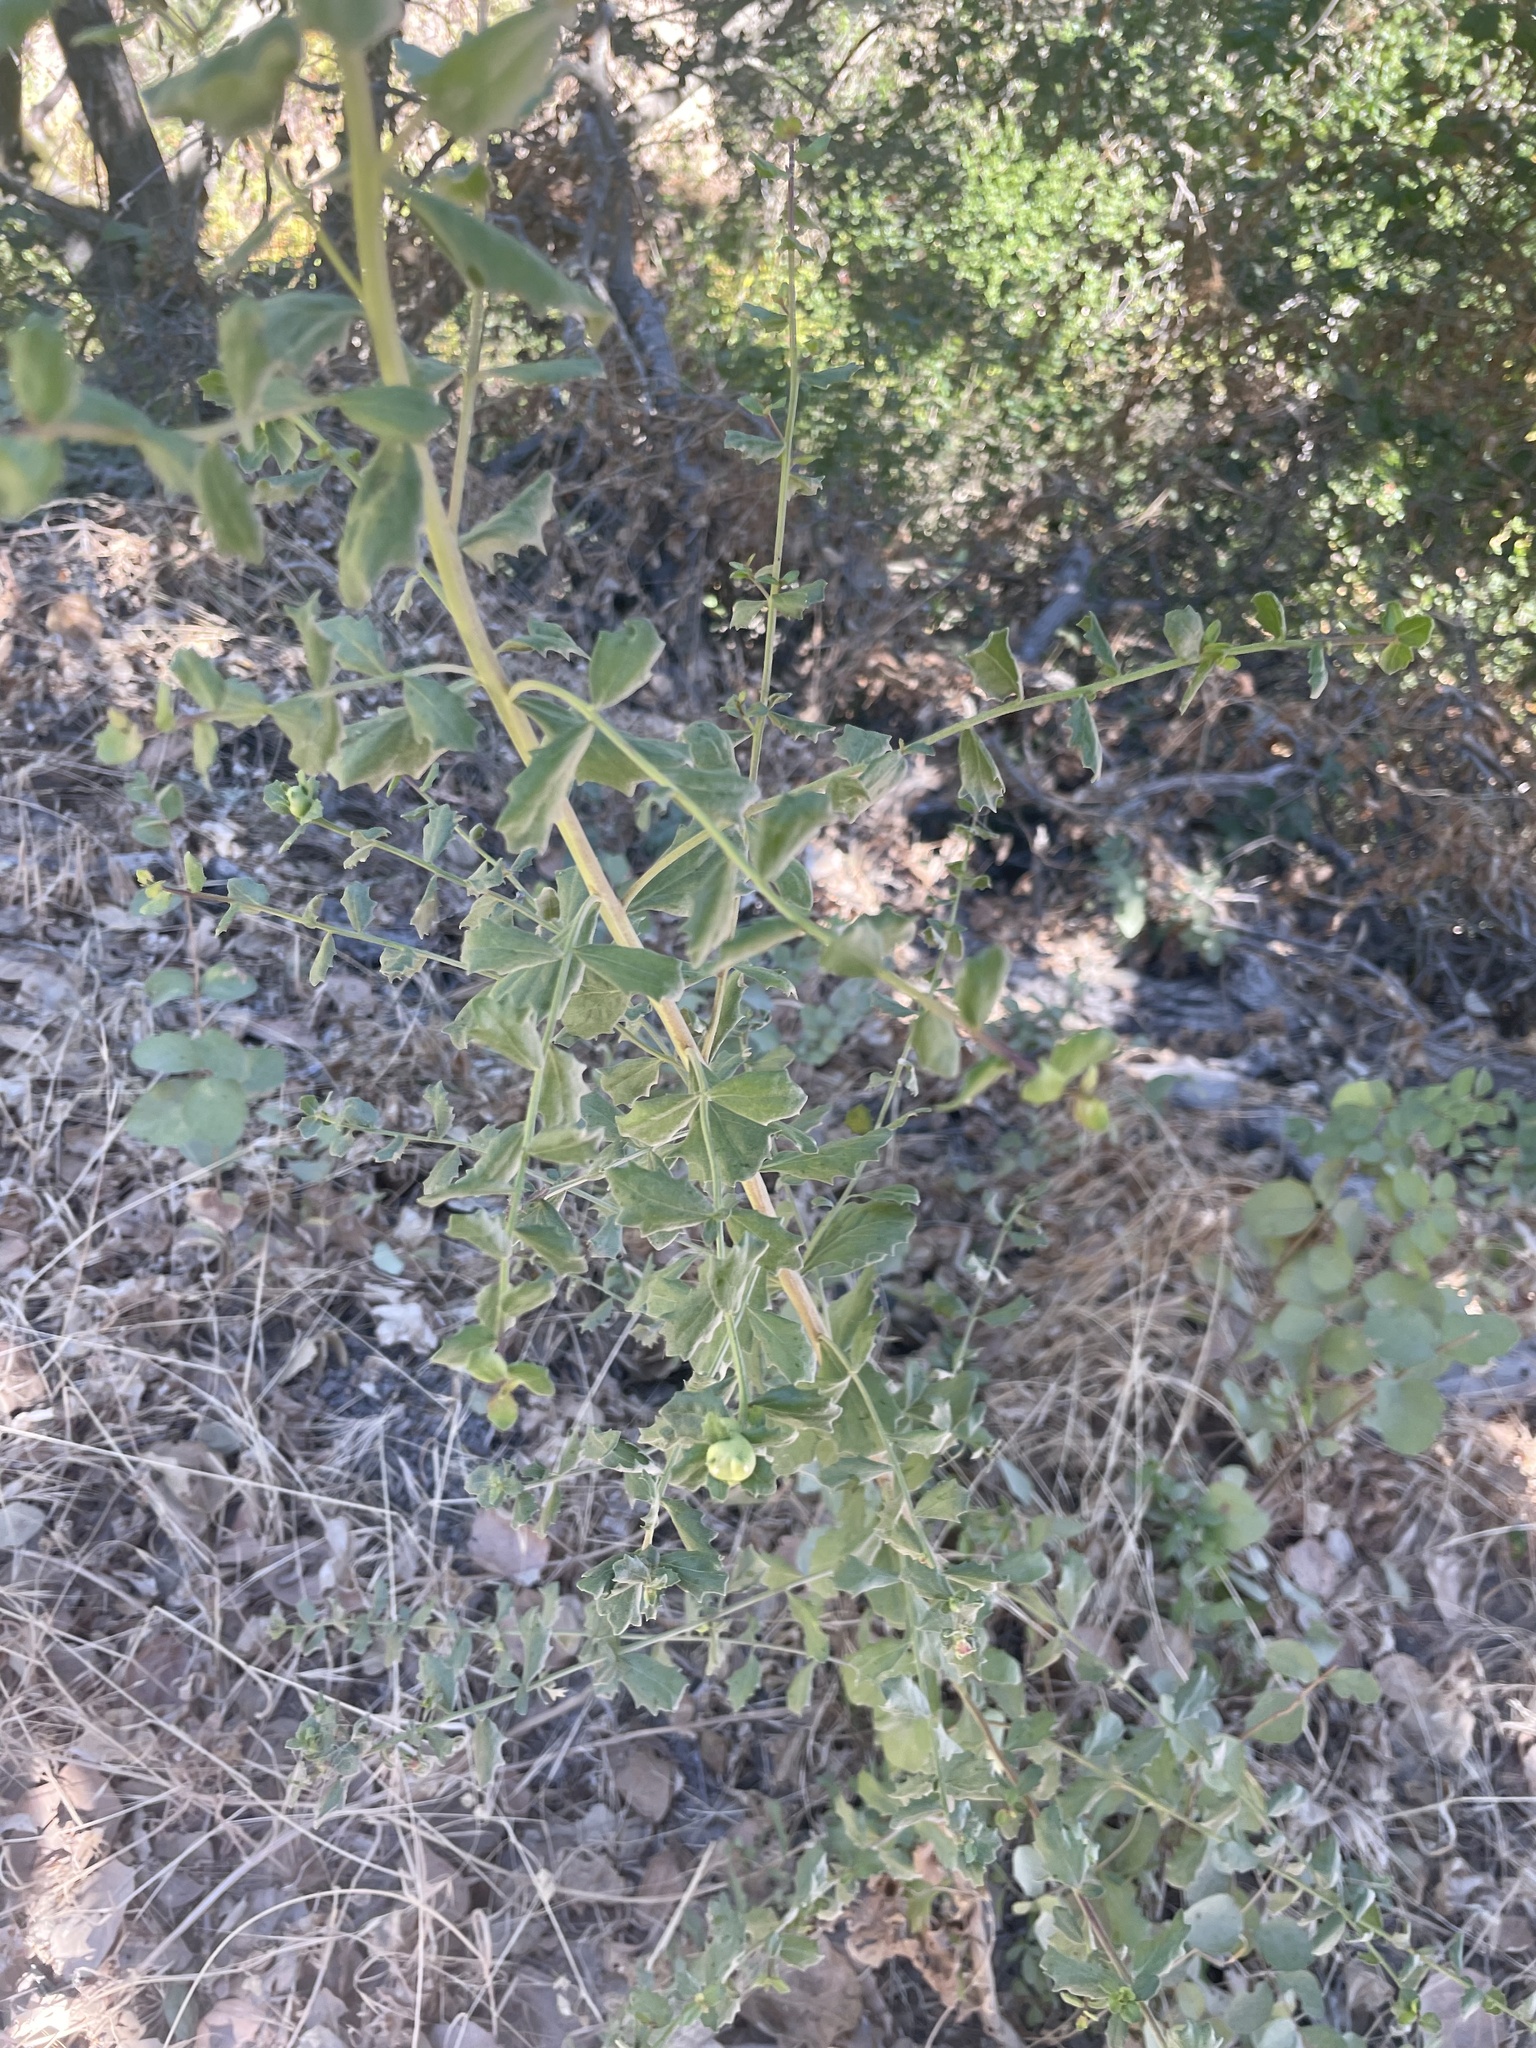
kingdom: Plantae
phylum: Tracheophyta
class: Magnoliopsida
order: Asterales
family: Asteraceae
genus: Baccharis
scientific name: Baccharis pilularis
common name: Coyotebrush
